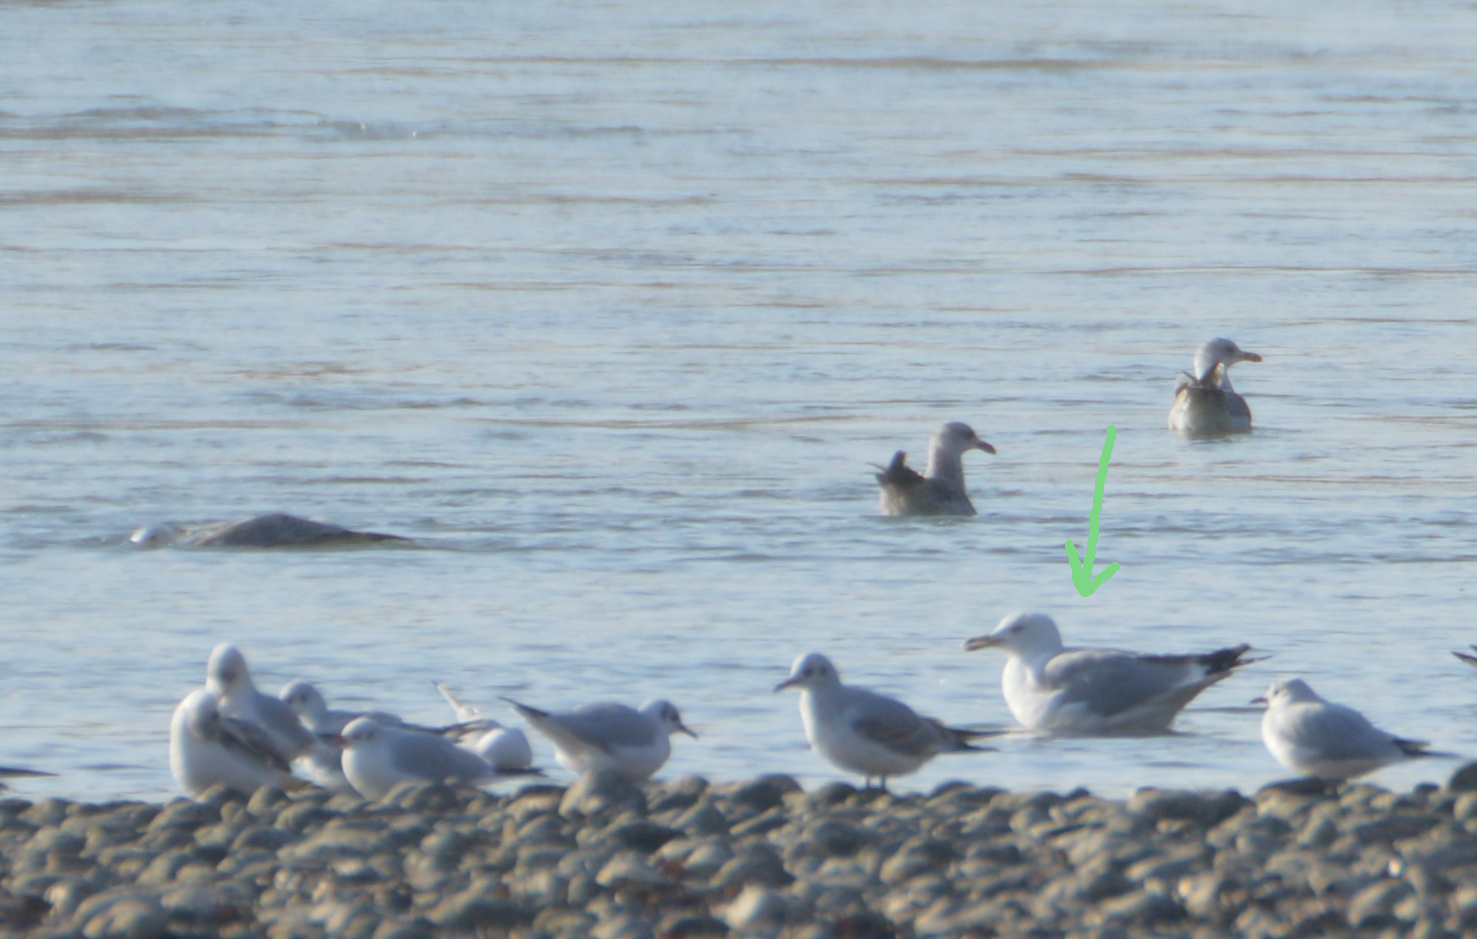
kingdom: Animalia
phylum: Chordata
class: Aves
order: Charadriiformes
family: Laridae
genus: Larus
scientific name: Larus cachinnans
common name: Caspian gull
